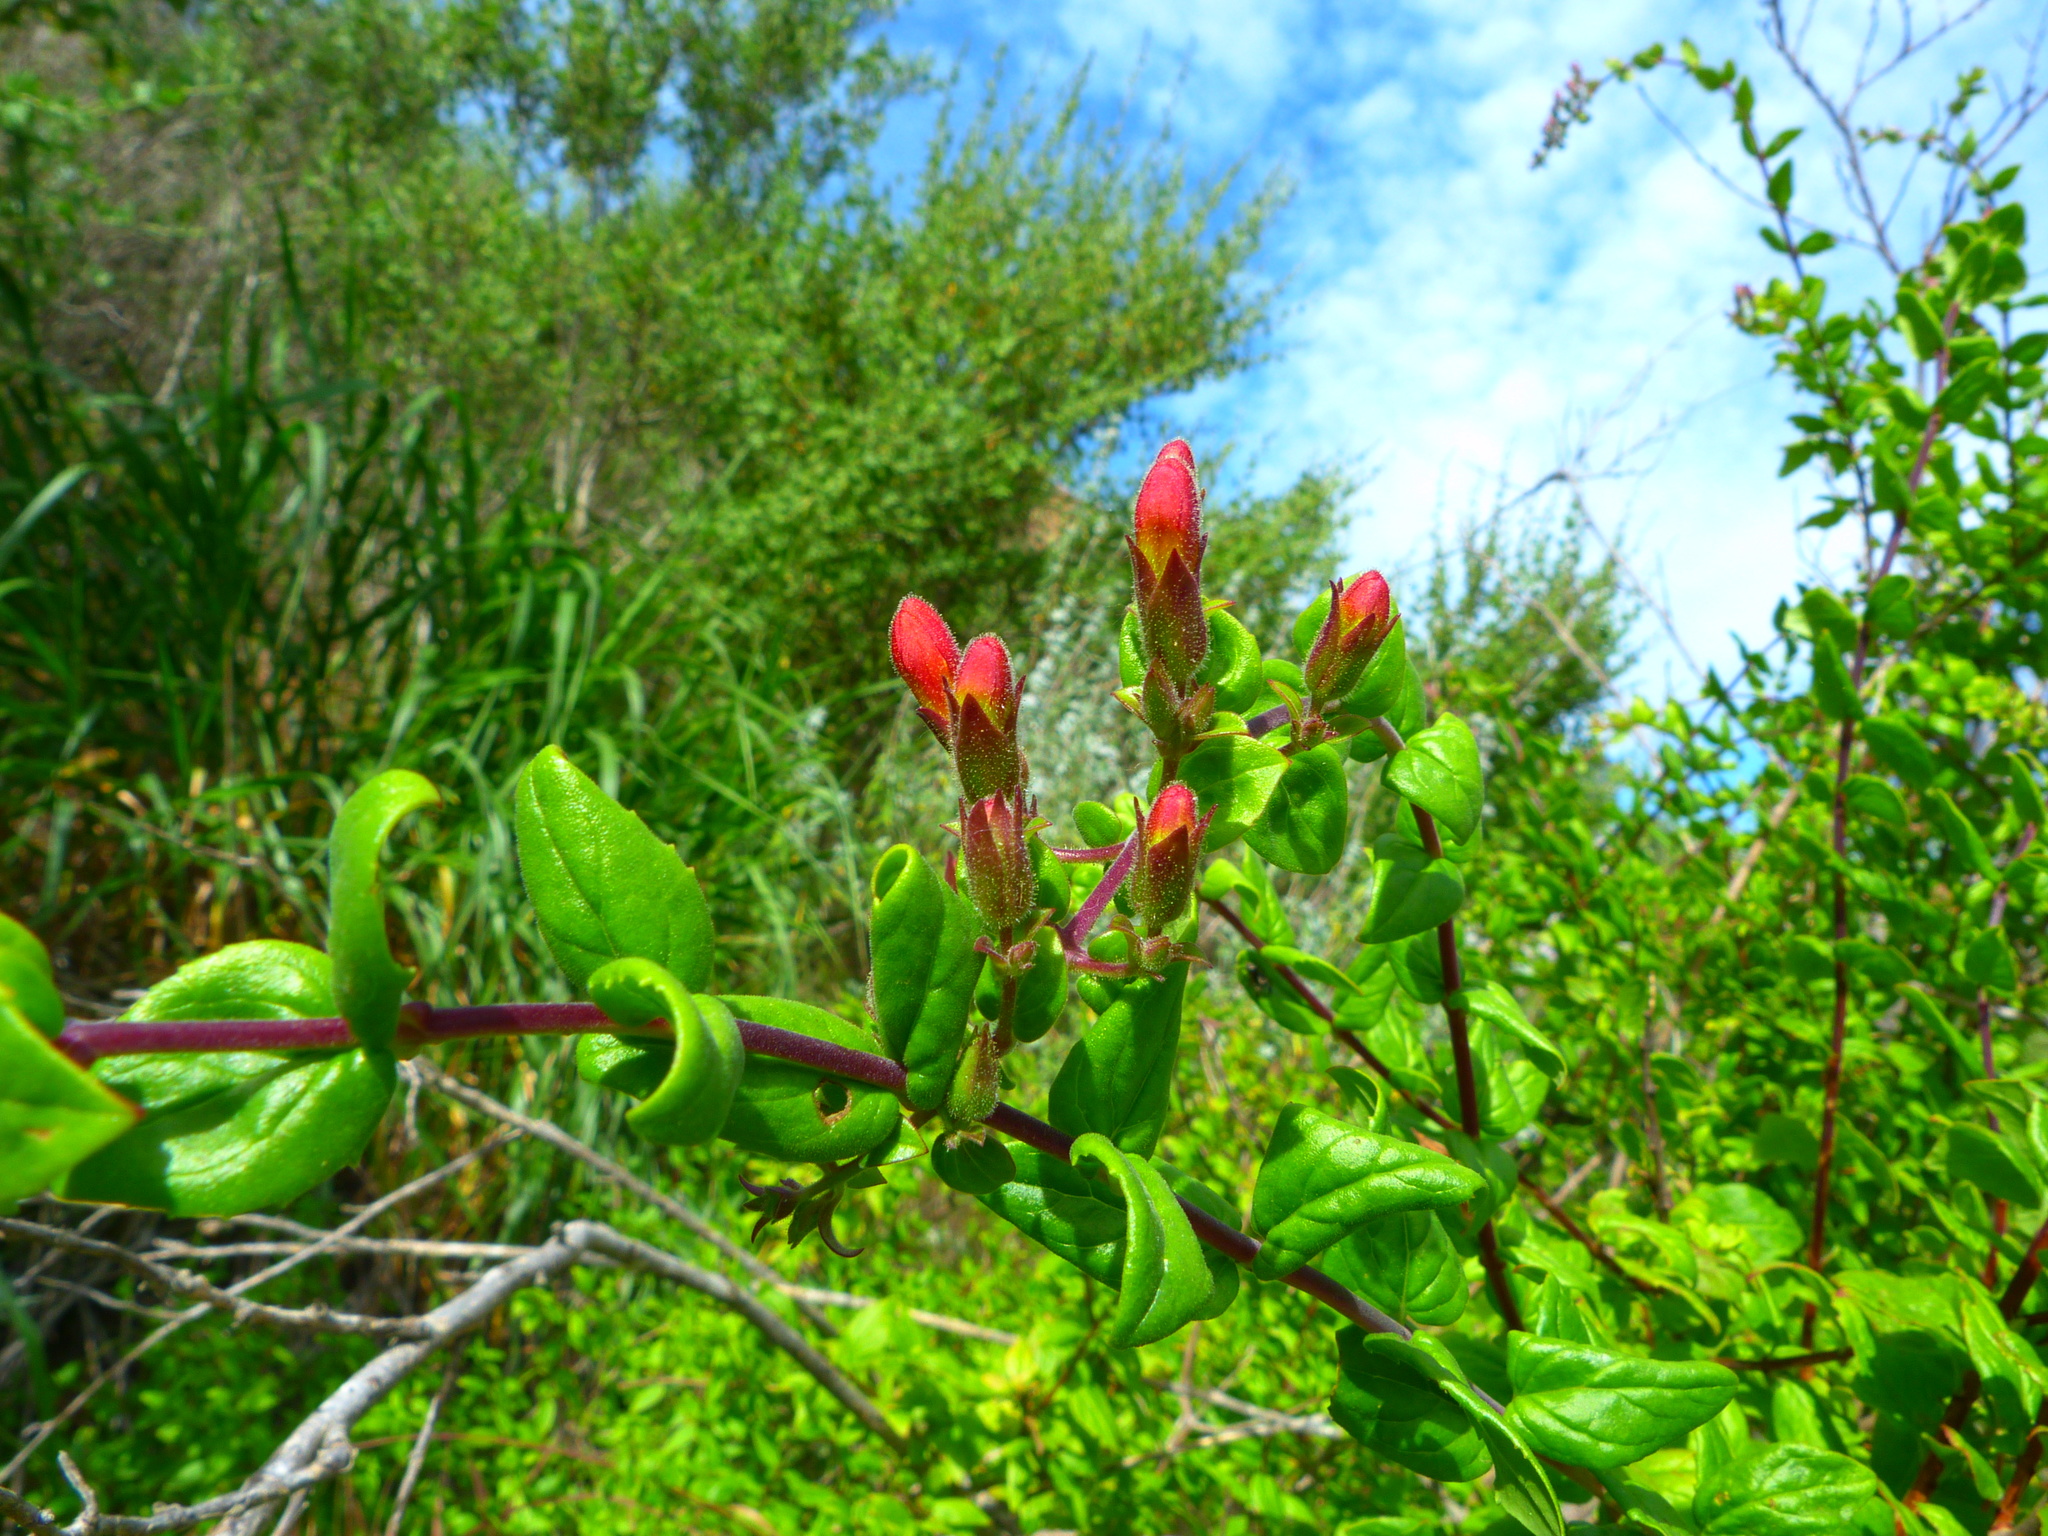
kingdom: Plantae
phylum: Tracheophyta
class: Magnoliopsida
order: Lamiales
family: Plantaginaceae
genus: Keckiella
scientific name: Keckiella cordifolia
